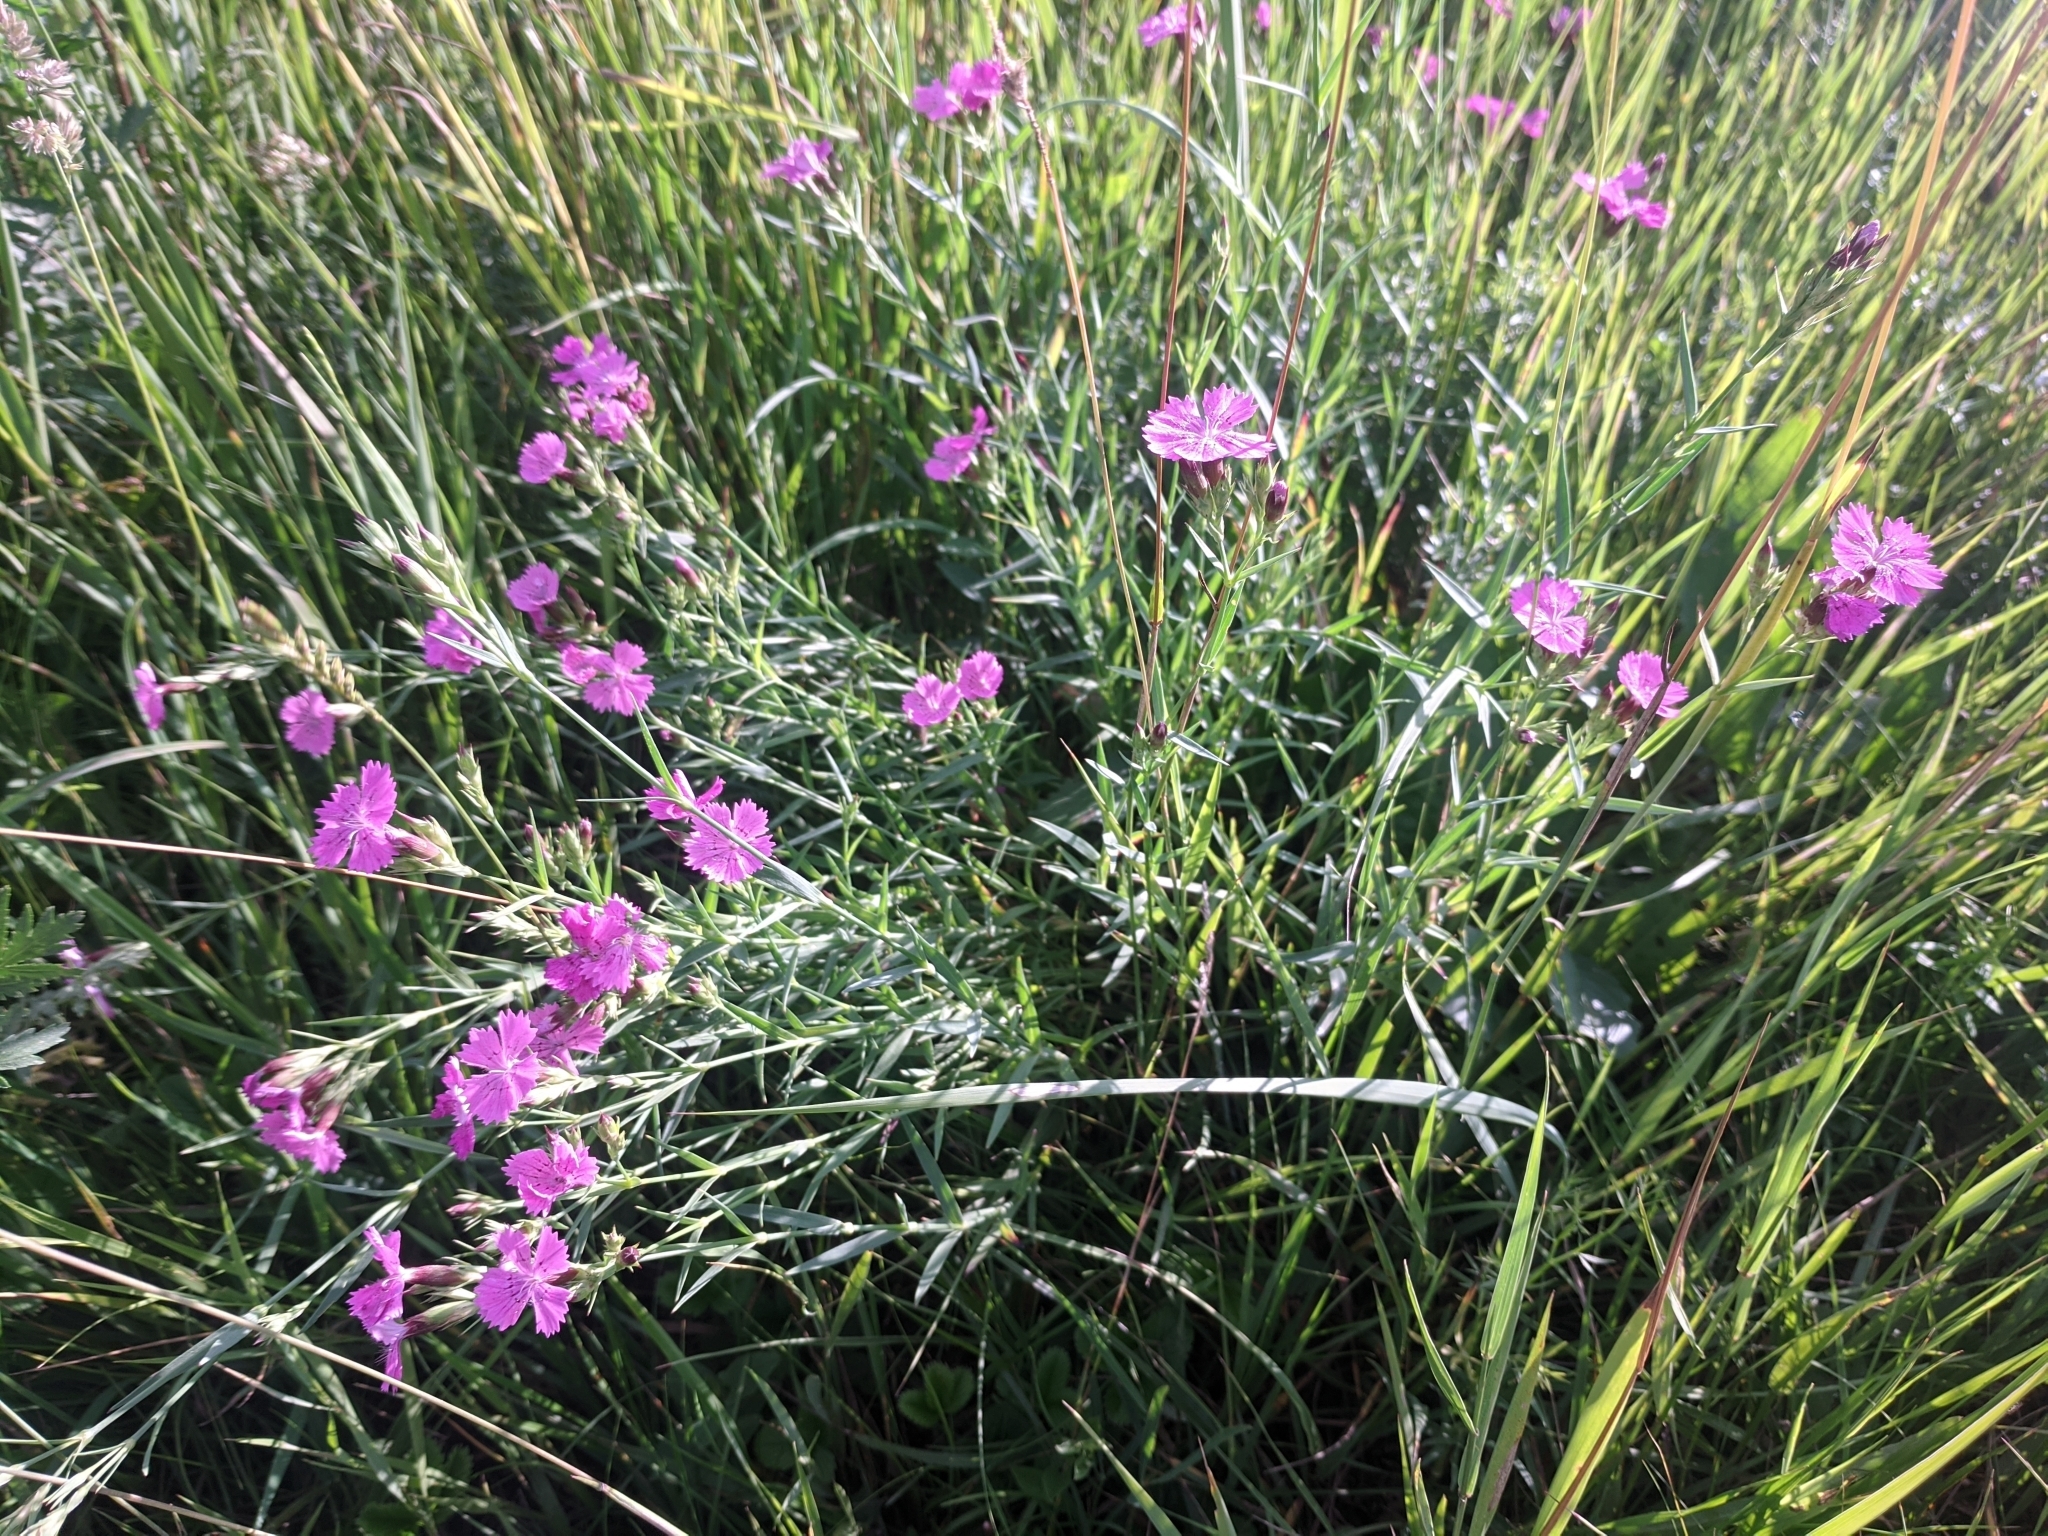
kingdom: Plantae
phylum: Tracheophyta
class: Magnoliopsida
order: Caryophyllales
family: Caryophyllaceae
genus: Dianthus
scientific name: Dianthus collinus
